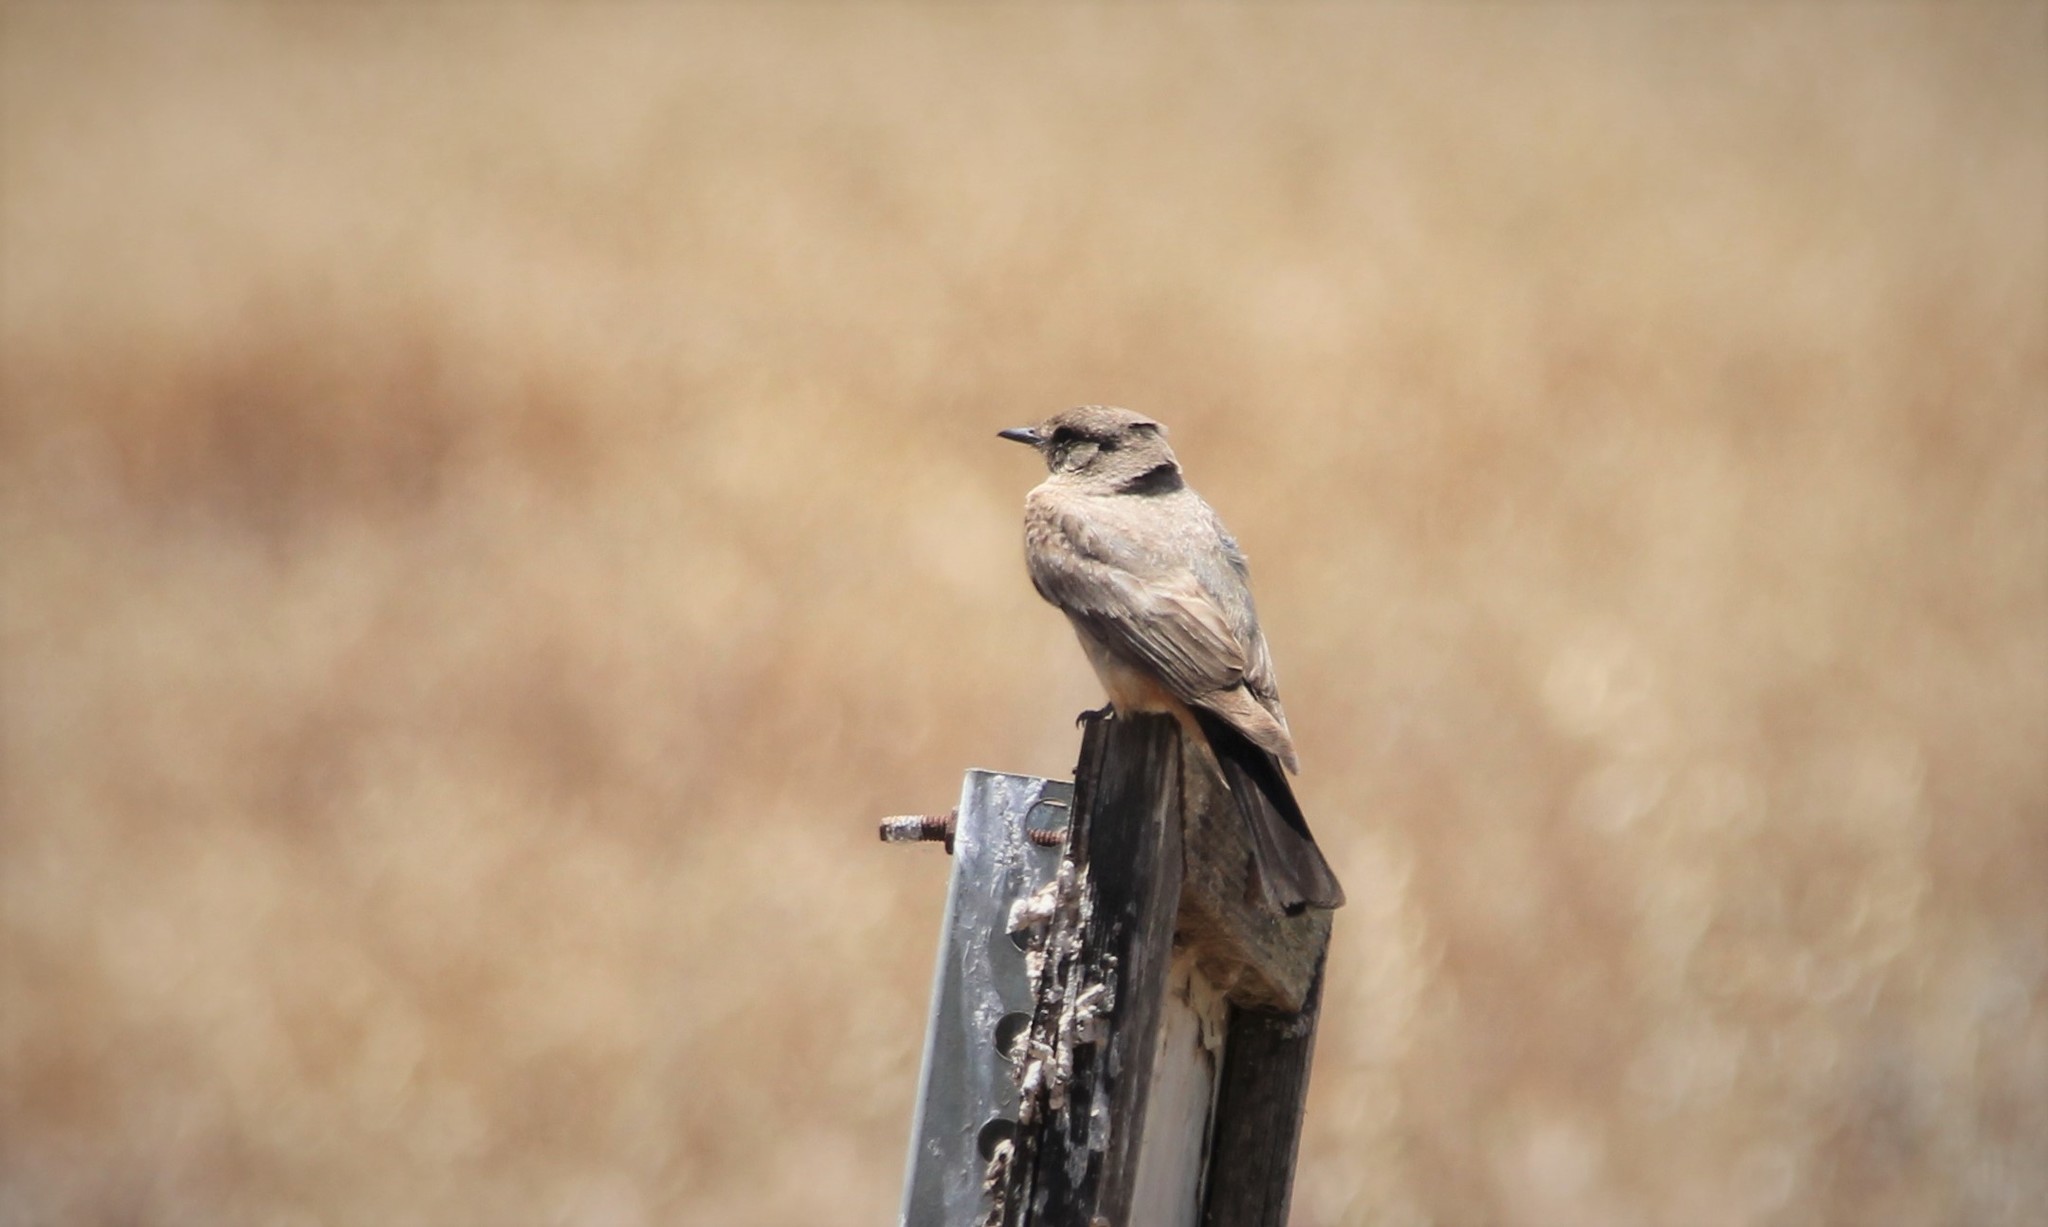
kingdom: Animalia
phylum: Chordata
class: Aves
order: Passeriformes
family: Tyrannidae
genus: Sayornis
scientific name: Sayornis saya
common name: Say's phoebe
